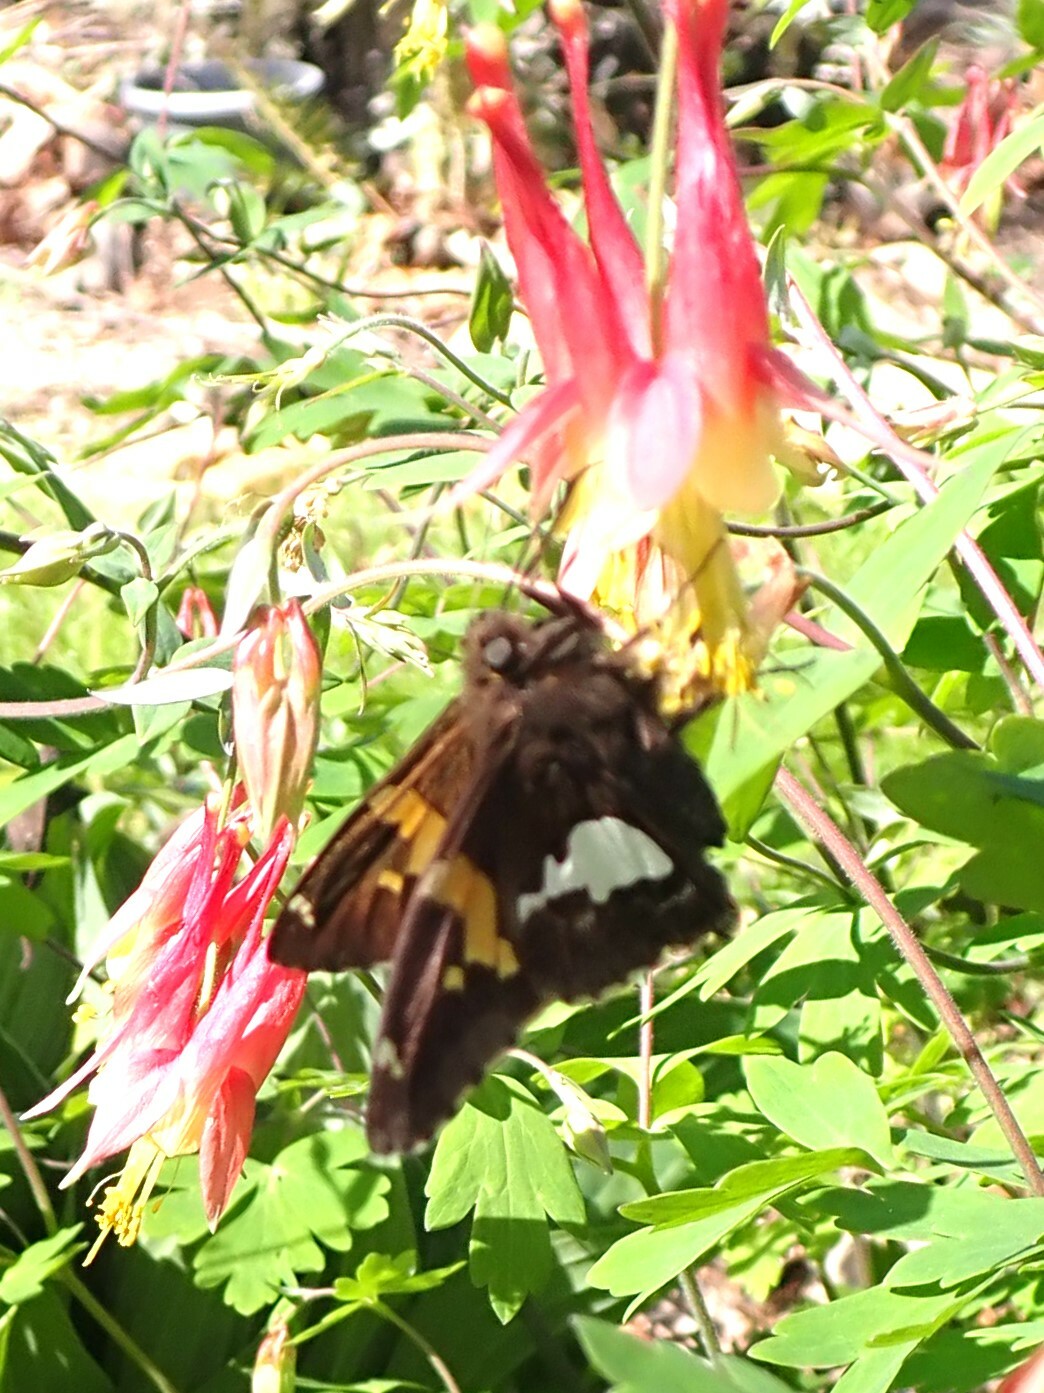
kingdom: Animalia
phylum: Arthropoda
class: Insecta
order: Lepidoptera
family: Hesperiidae
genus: Epargyreus
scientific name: Epargyreus clarus
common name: Silver-spotted skipper
